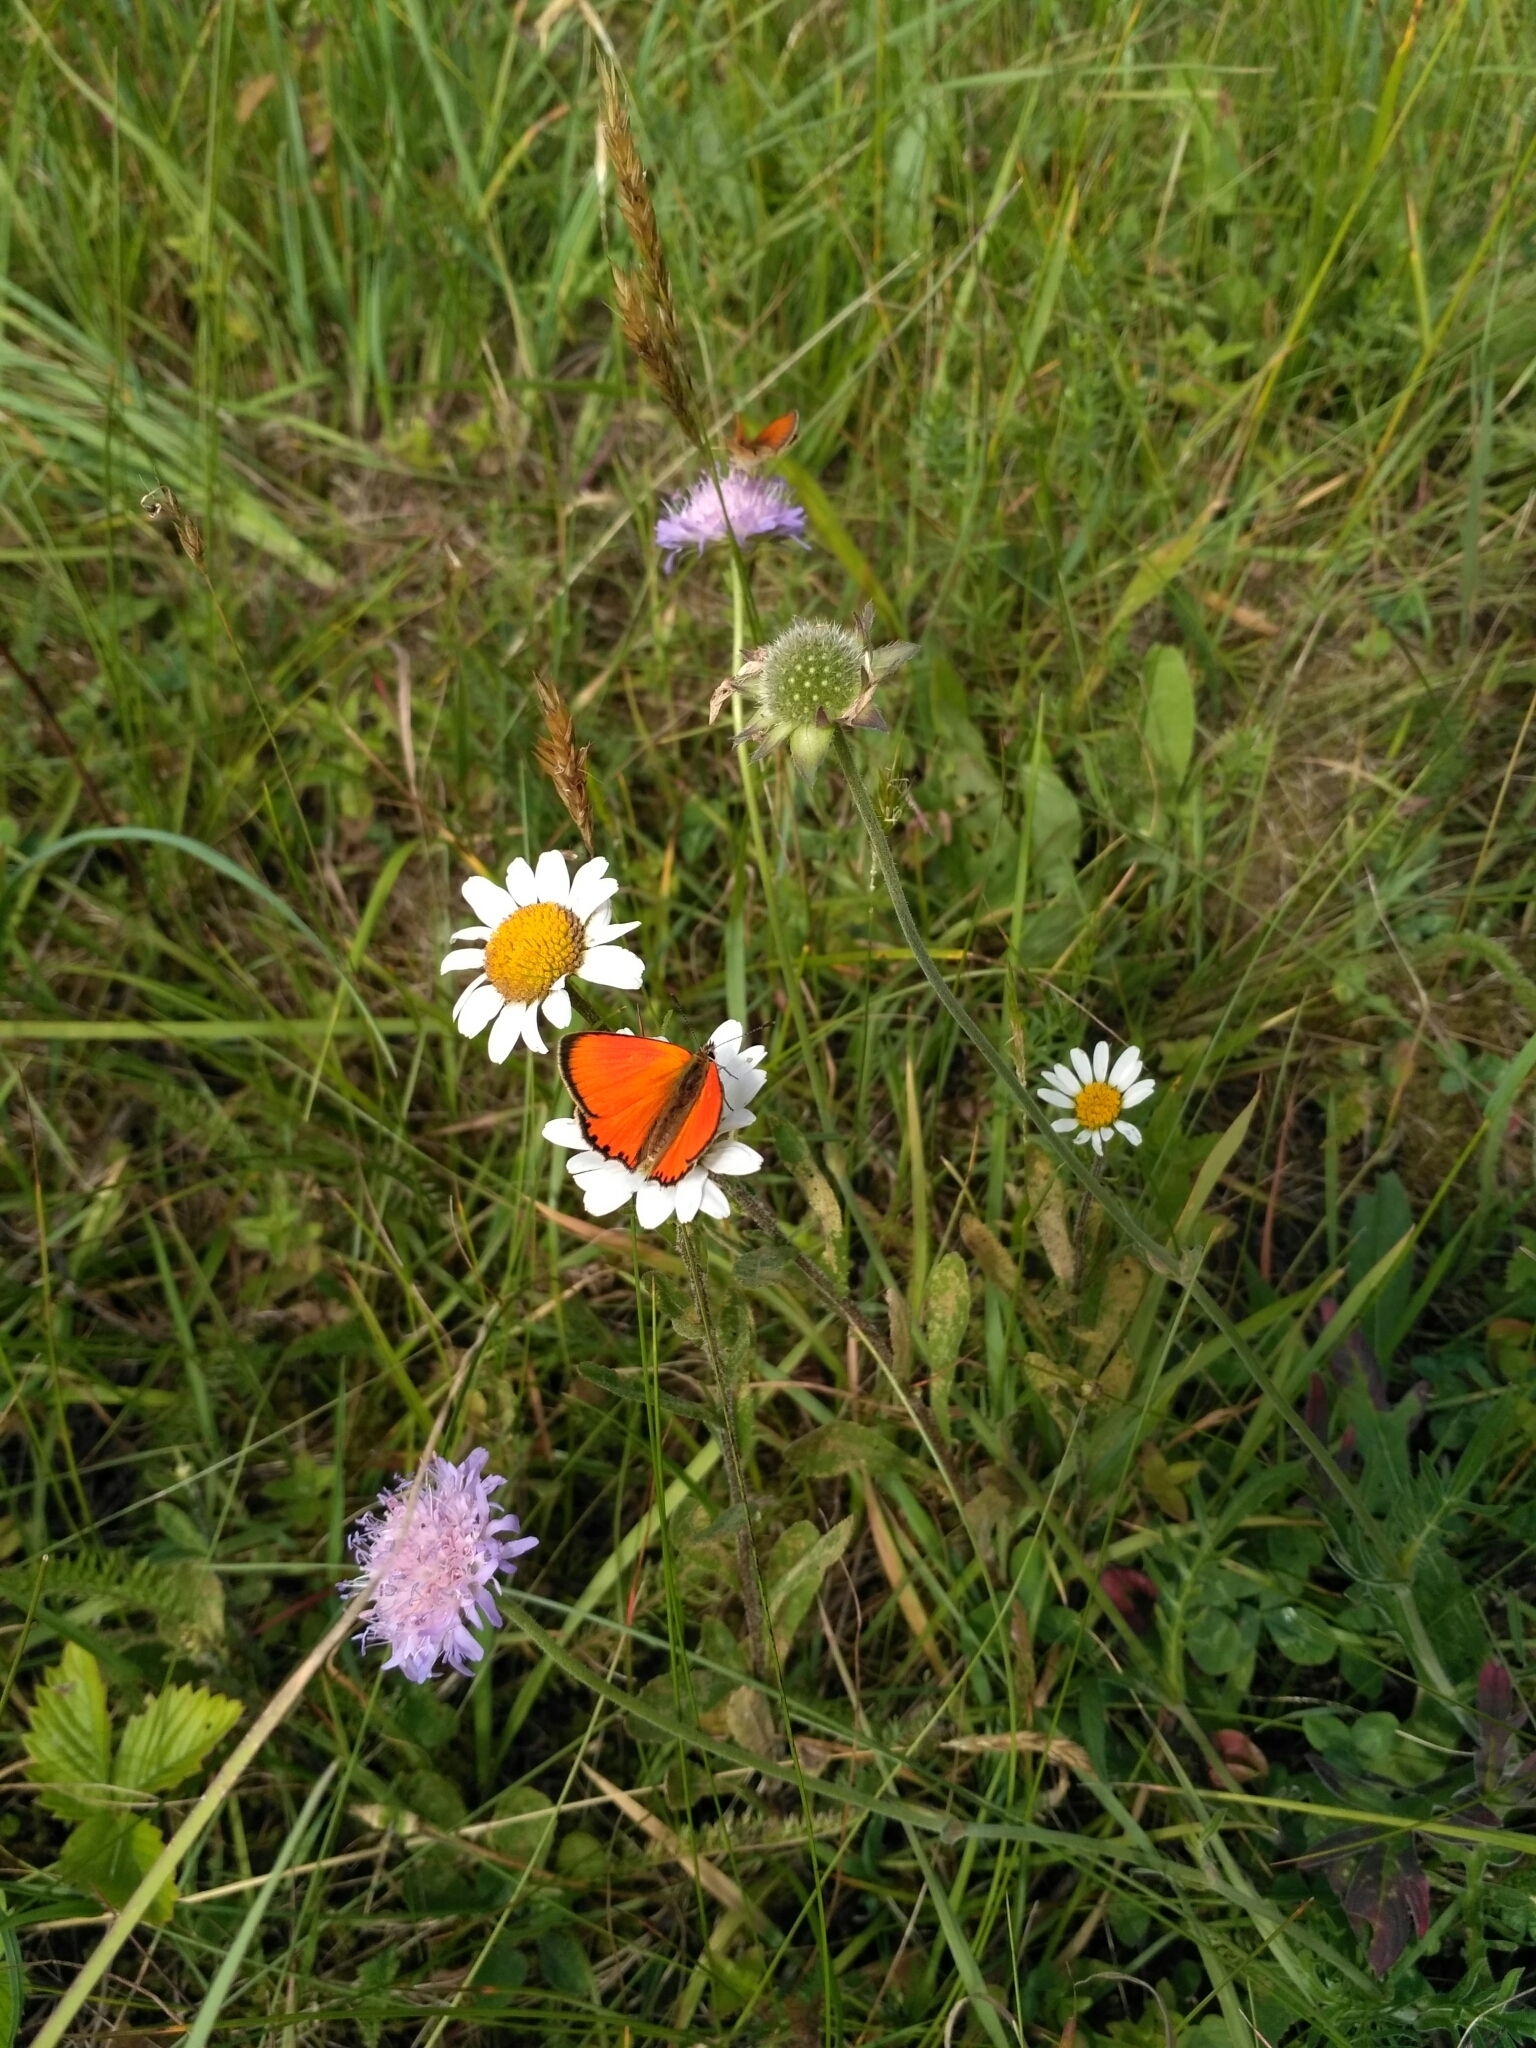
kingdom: Animalia
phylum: Arthropoda
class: Insecta
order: Lepidoptera
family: Lycaenidae
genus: Lycaena
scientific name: Lycaena virgaureae
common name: Scarce copper
